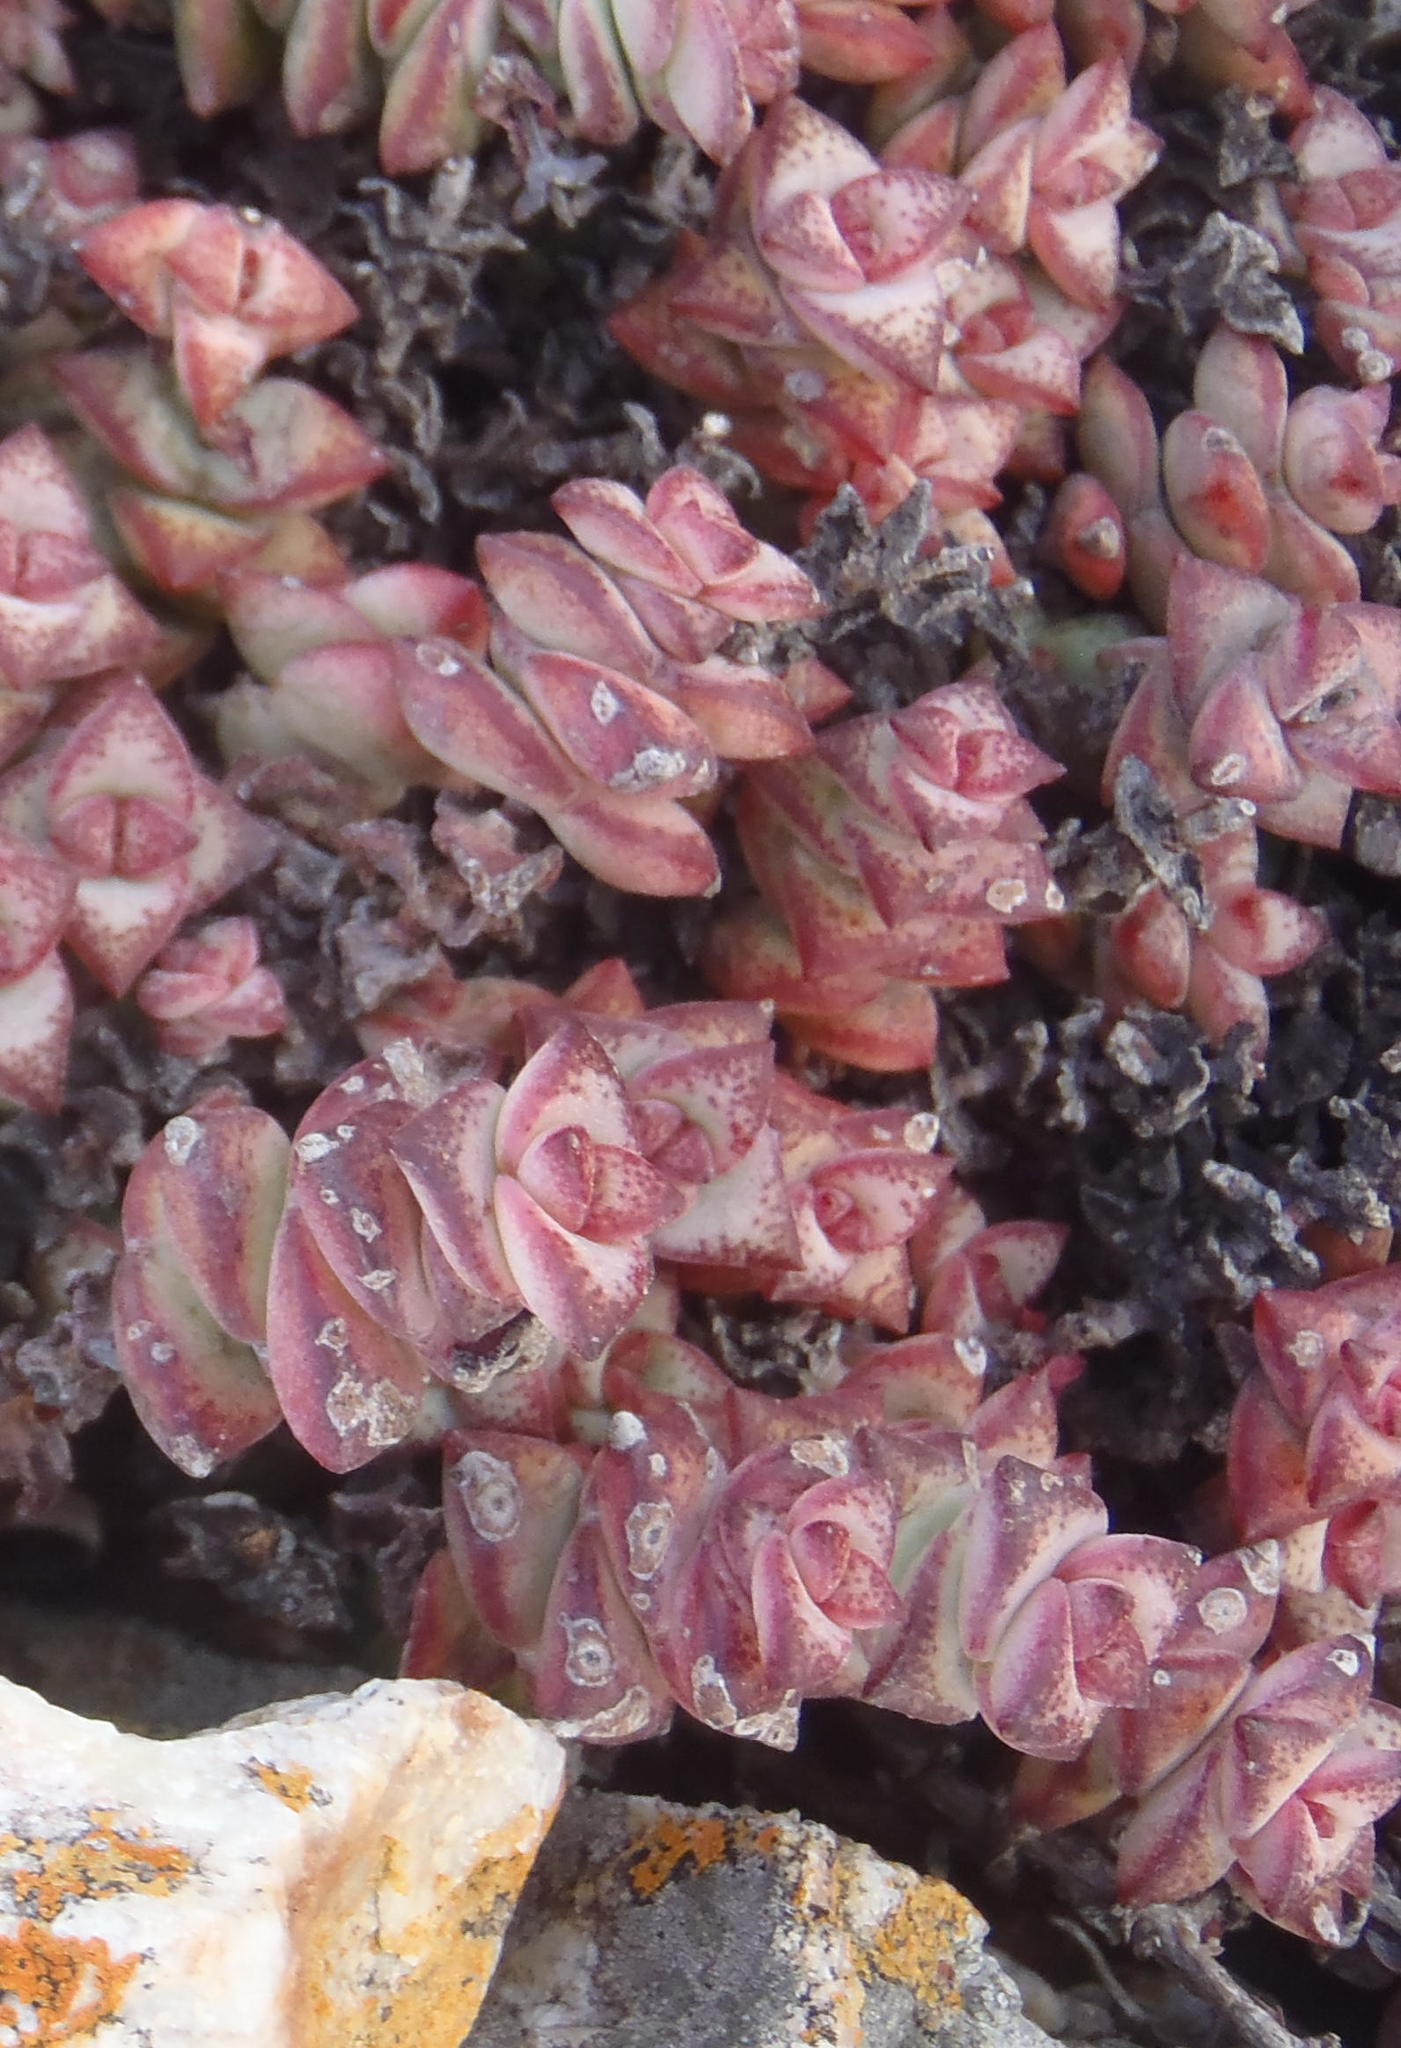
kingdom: Plantae
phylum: Tracheophyta
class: Magnoliopsida
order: Saxifragales
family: Crassulaceae
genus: Crassula
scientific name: Crassula perforata
